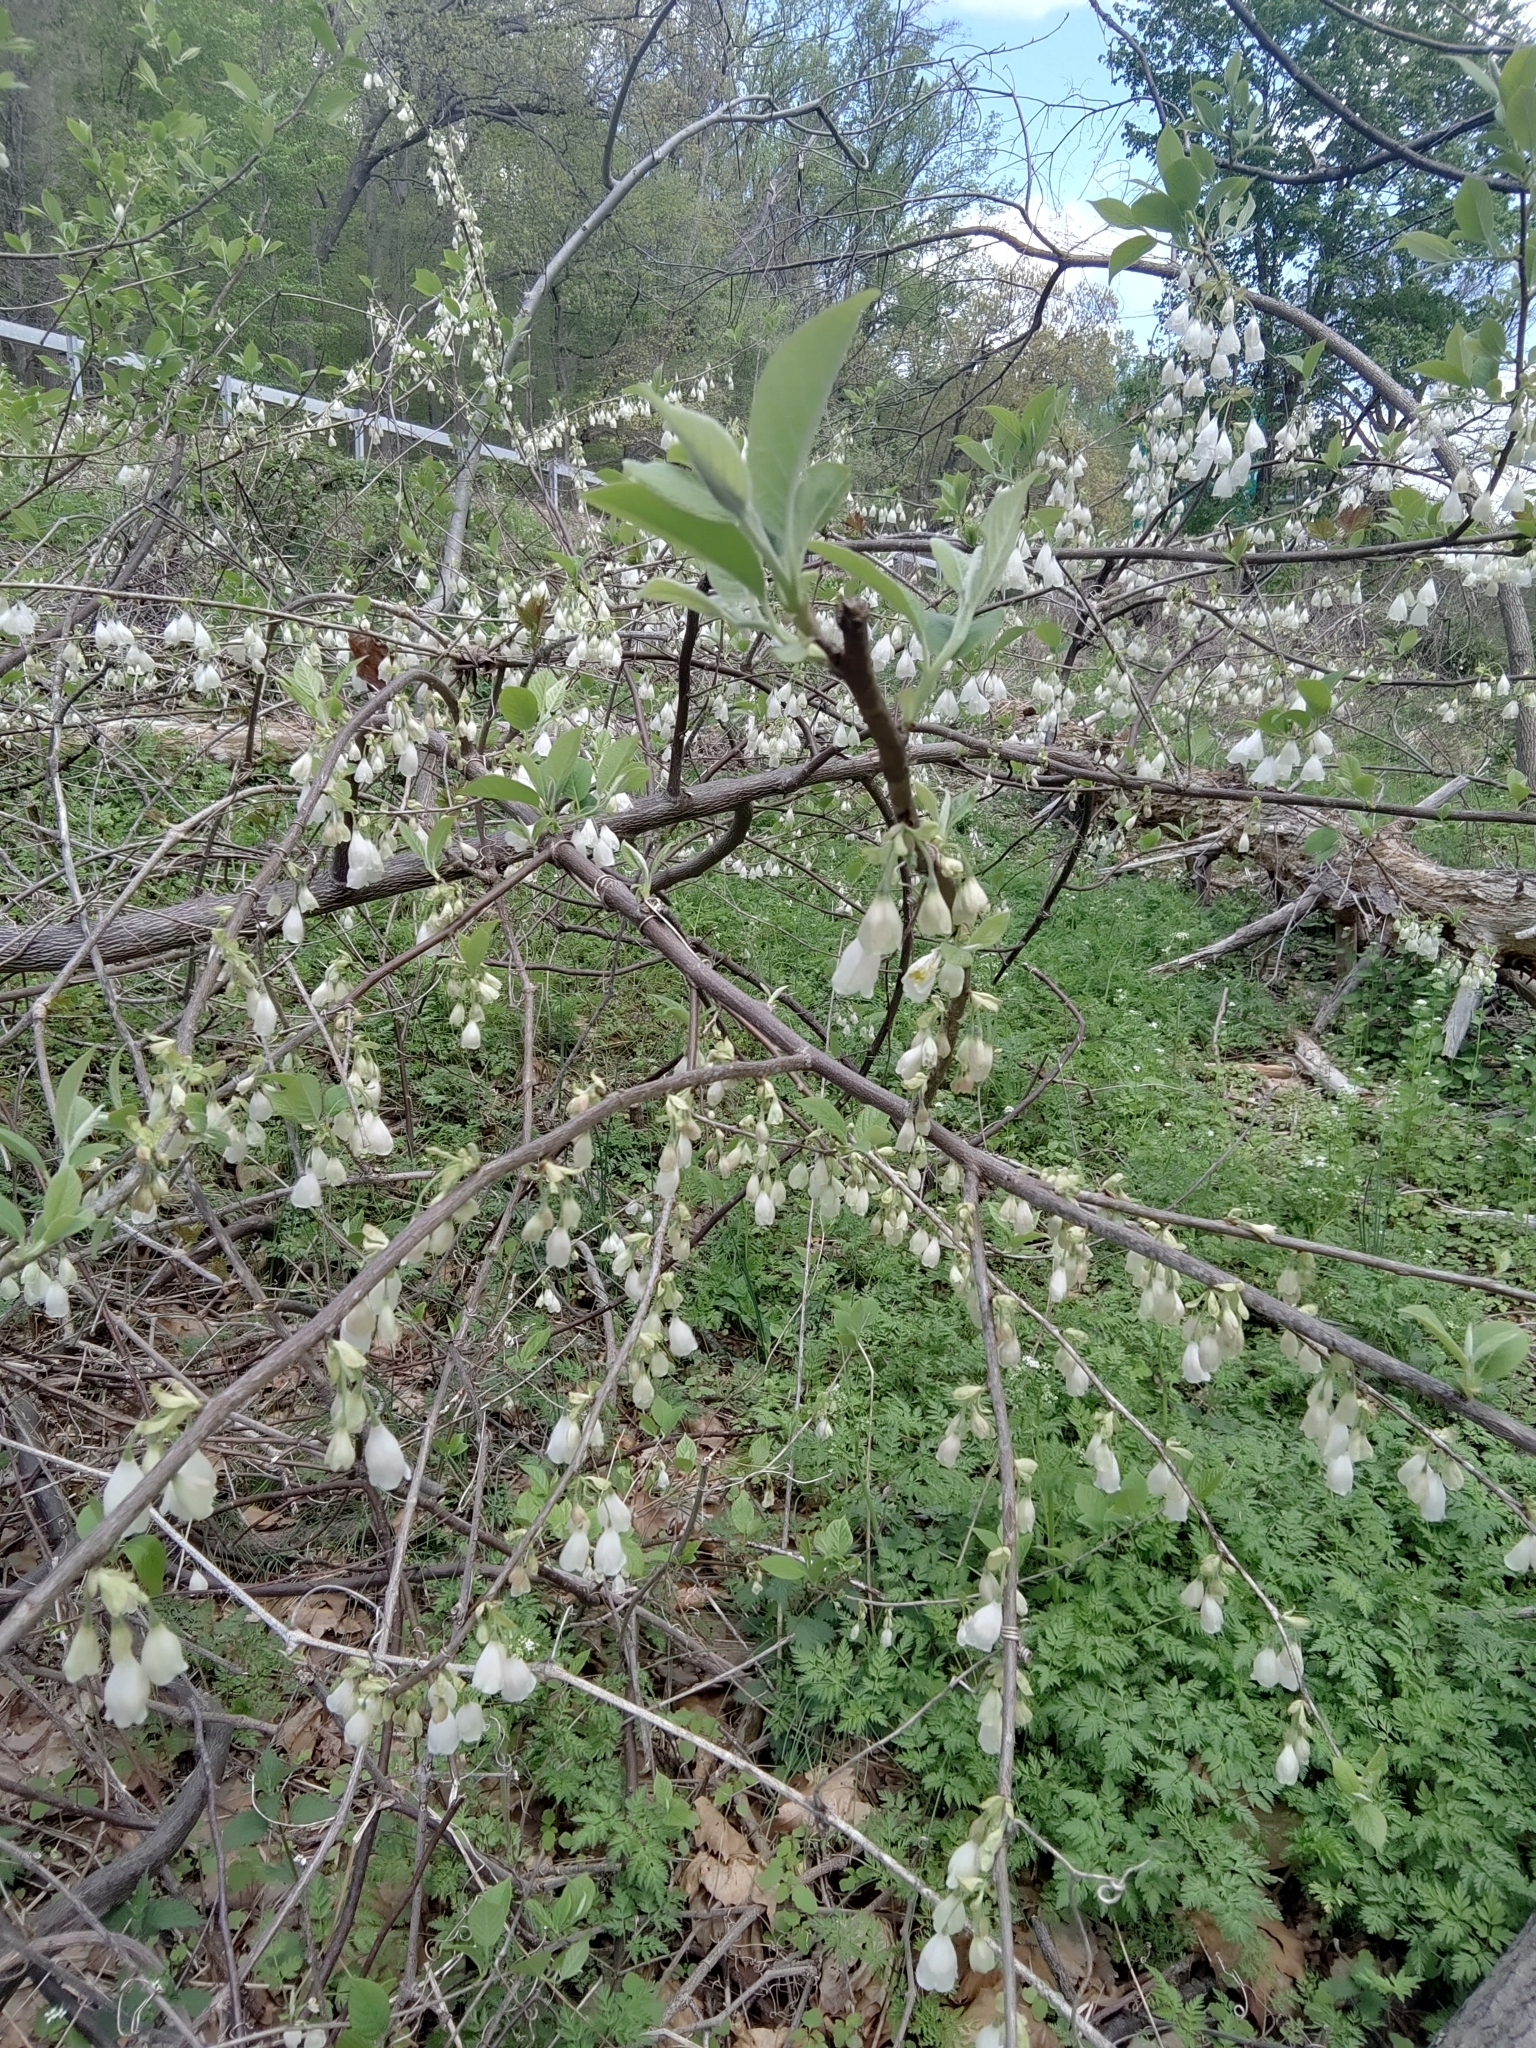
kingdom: Plantae
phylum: Tracheophyta
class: Magnoliopsida
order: Ericales
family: Styracaceae
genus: Halesia
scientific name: Halesia carolina
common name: Carolina silverbell
